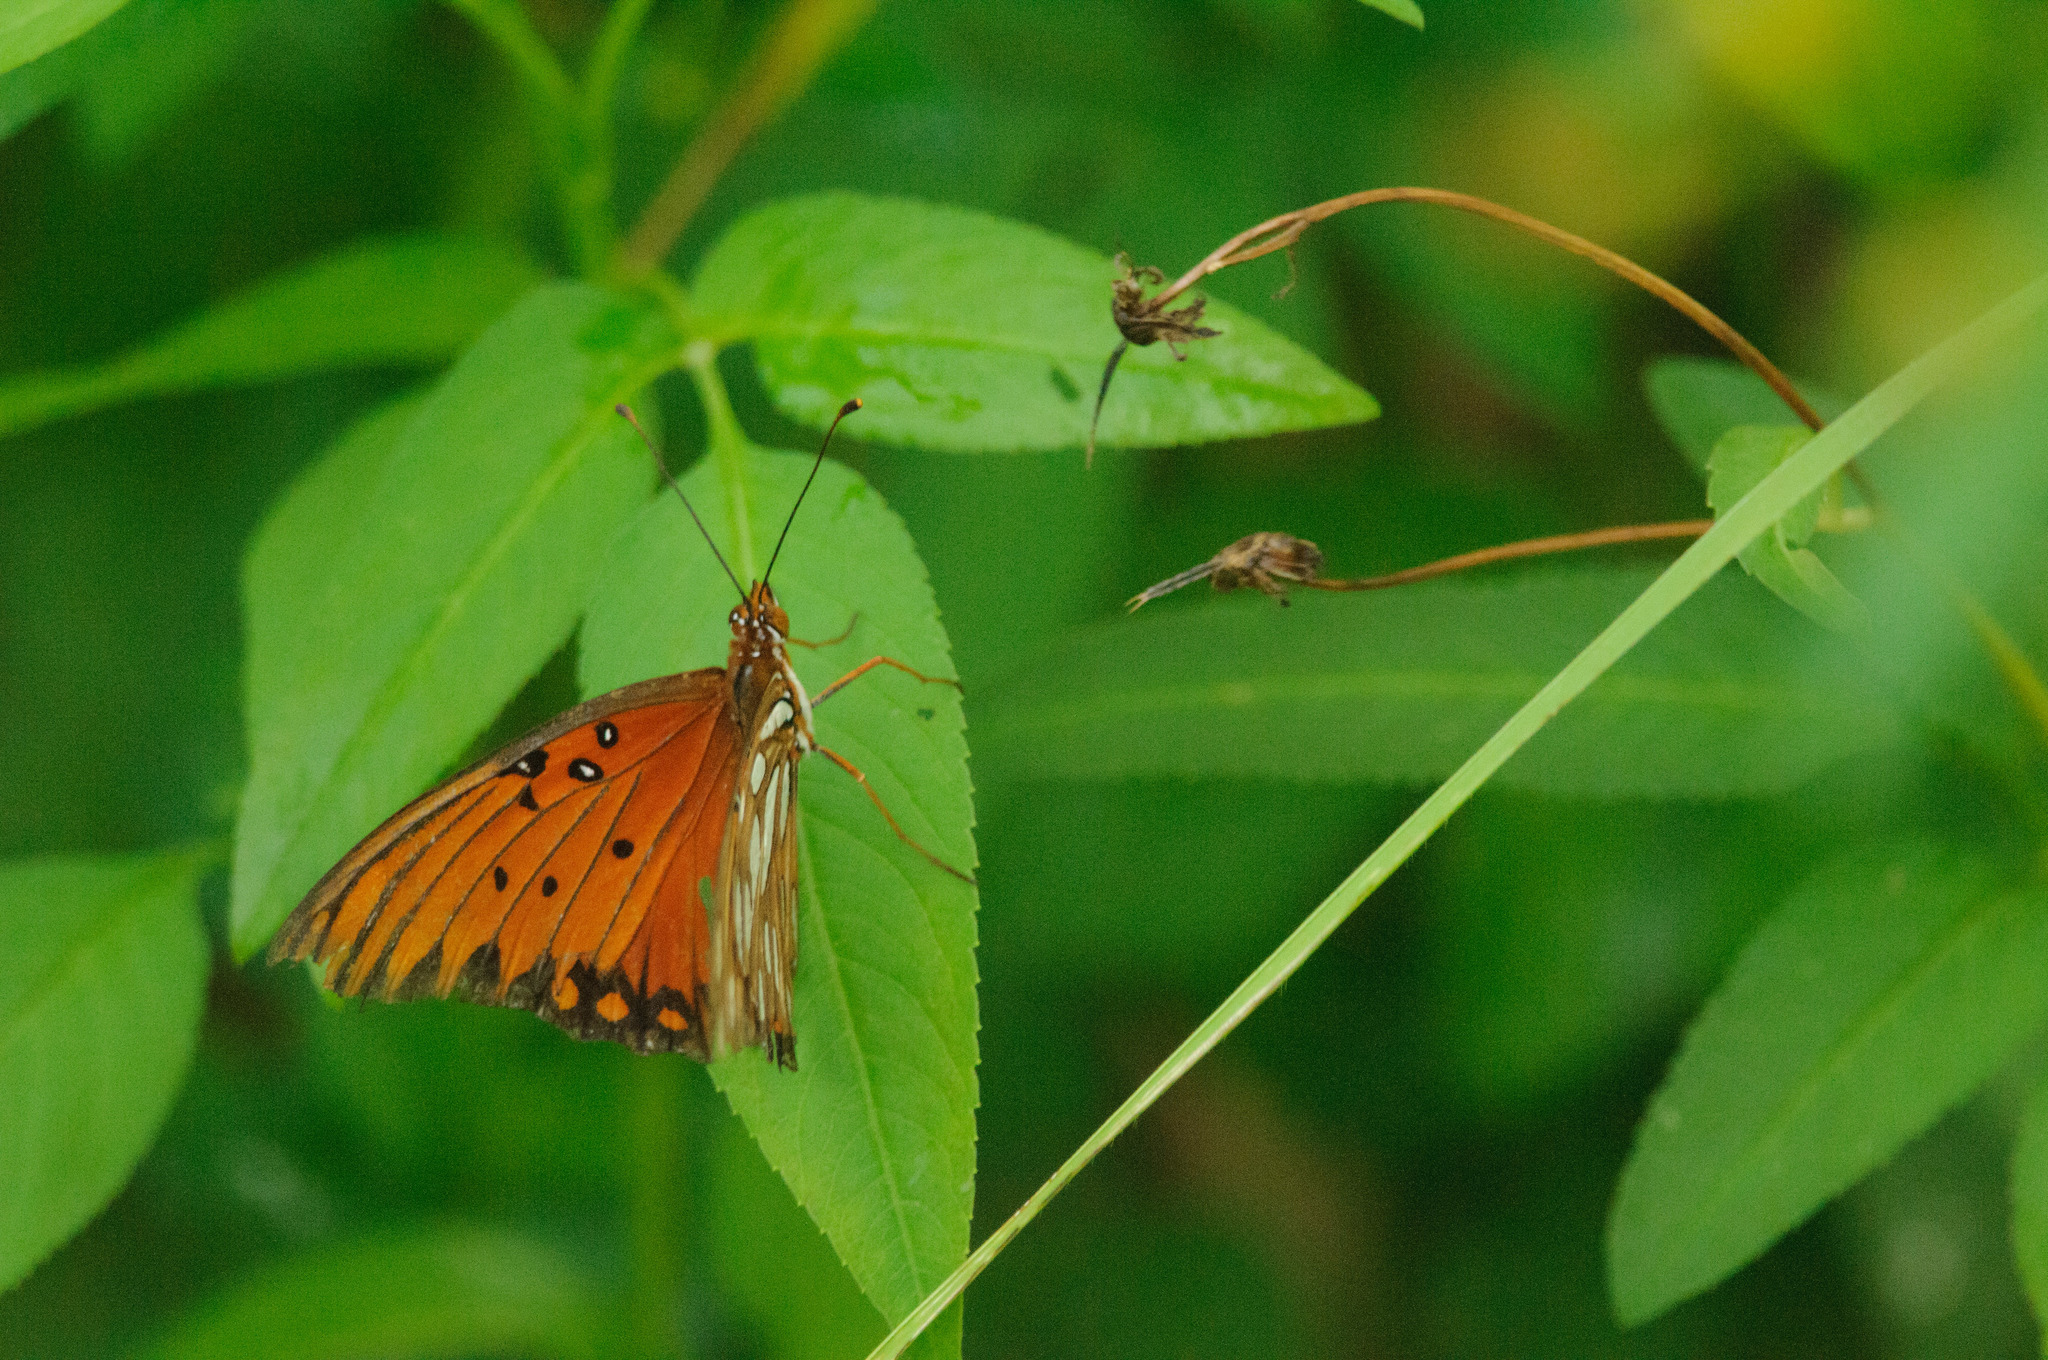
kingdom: Animalia
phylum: Arthropoda
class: Insecta
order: Lepidoptera
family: Nymphalidae
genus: Dione
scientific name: Dione vanillae
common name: Gulf fritillary
